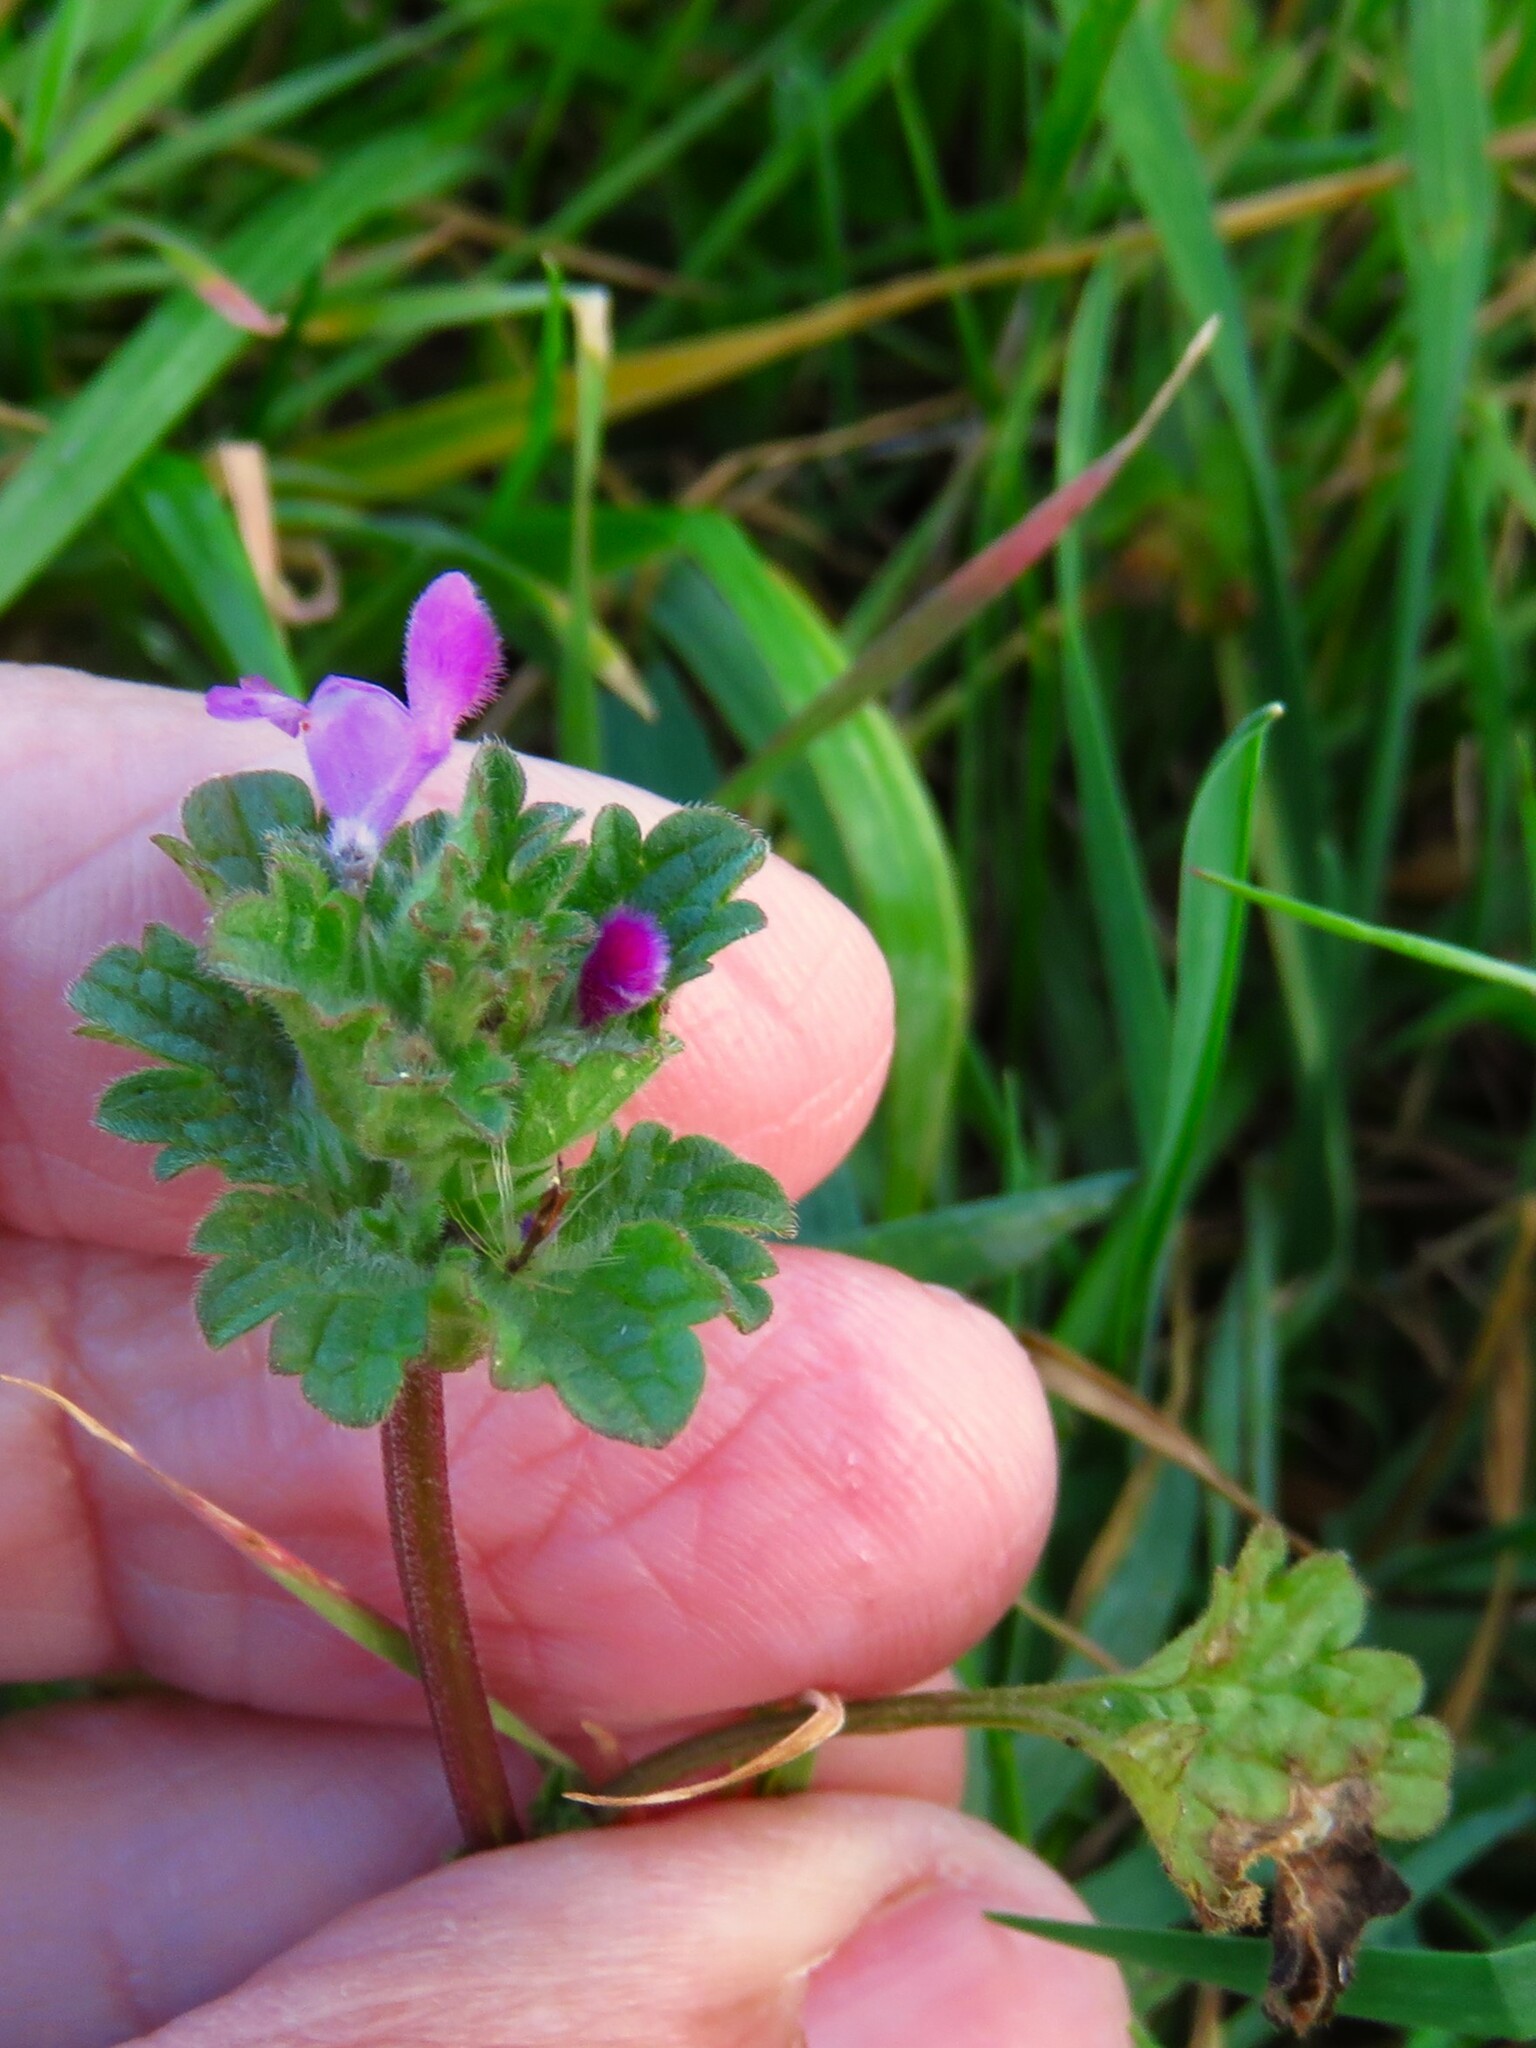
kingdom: Plantae
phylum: Tracheophyta
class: Magnoliopsida
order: Lamiales
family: Lamiaceae
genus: Lamium
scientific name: Lamium amplexicaule
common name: Henbit dead-nettle
